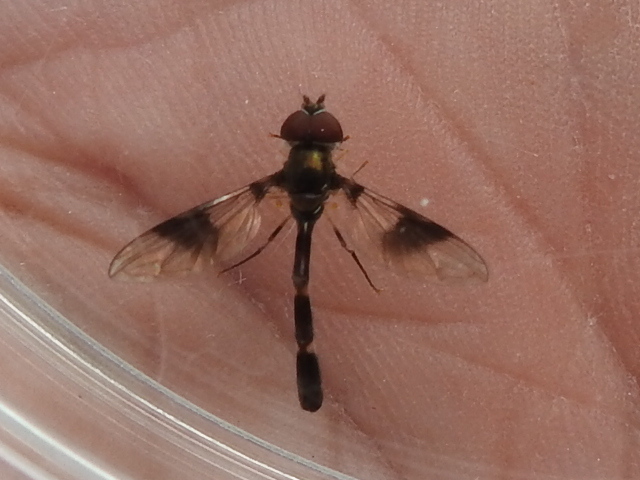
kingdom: Animalia
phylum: Arthropoda
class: Insecta
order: Diptera
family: Syrphidae
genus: Hypocritanus
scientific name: Hypocritanus fascipennis
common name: Eastern band-winged hover fly
